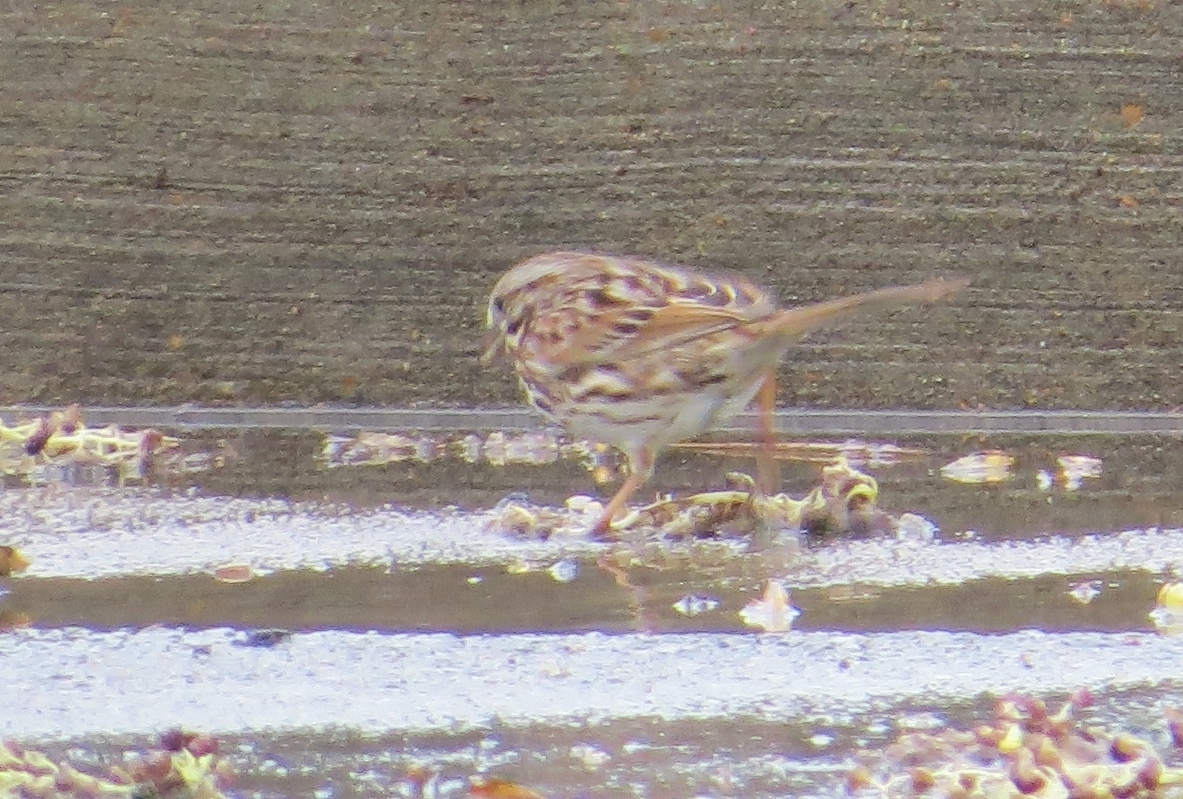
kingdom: Animalia
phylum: Chordata
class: Aves
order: Passeriformes
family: Passerellidae
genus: Melospiza
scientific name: Melospiza melodia
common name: Song sparrow
